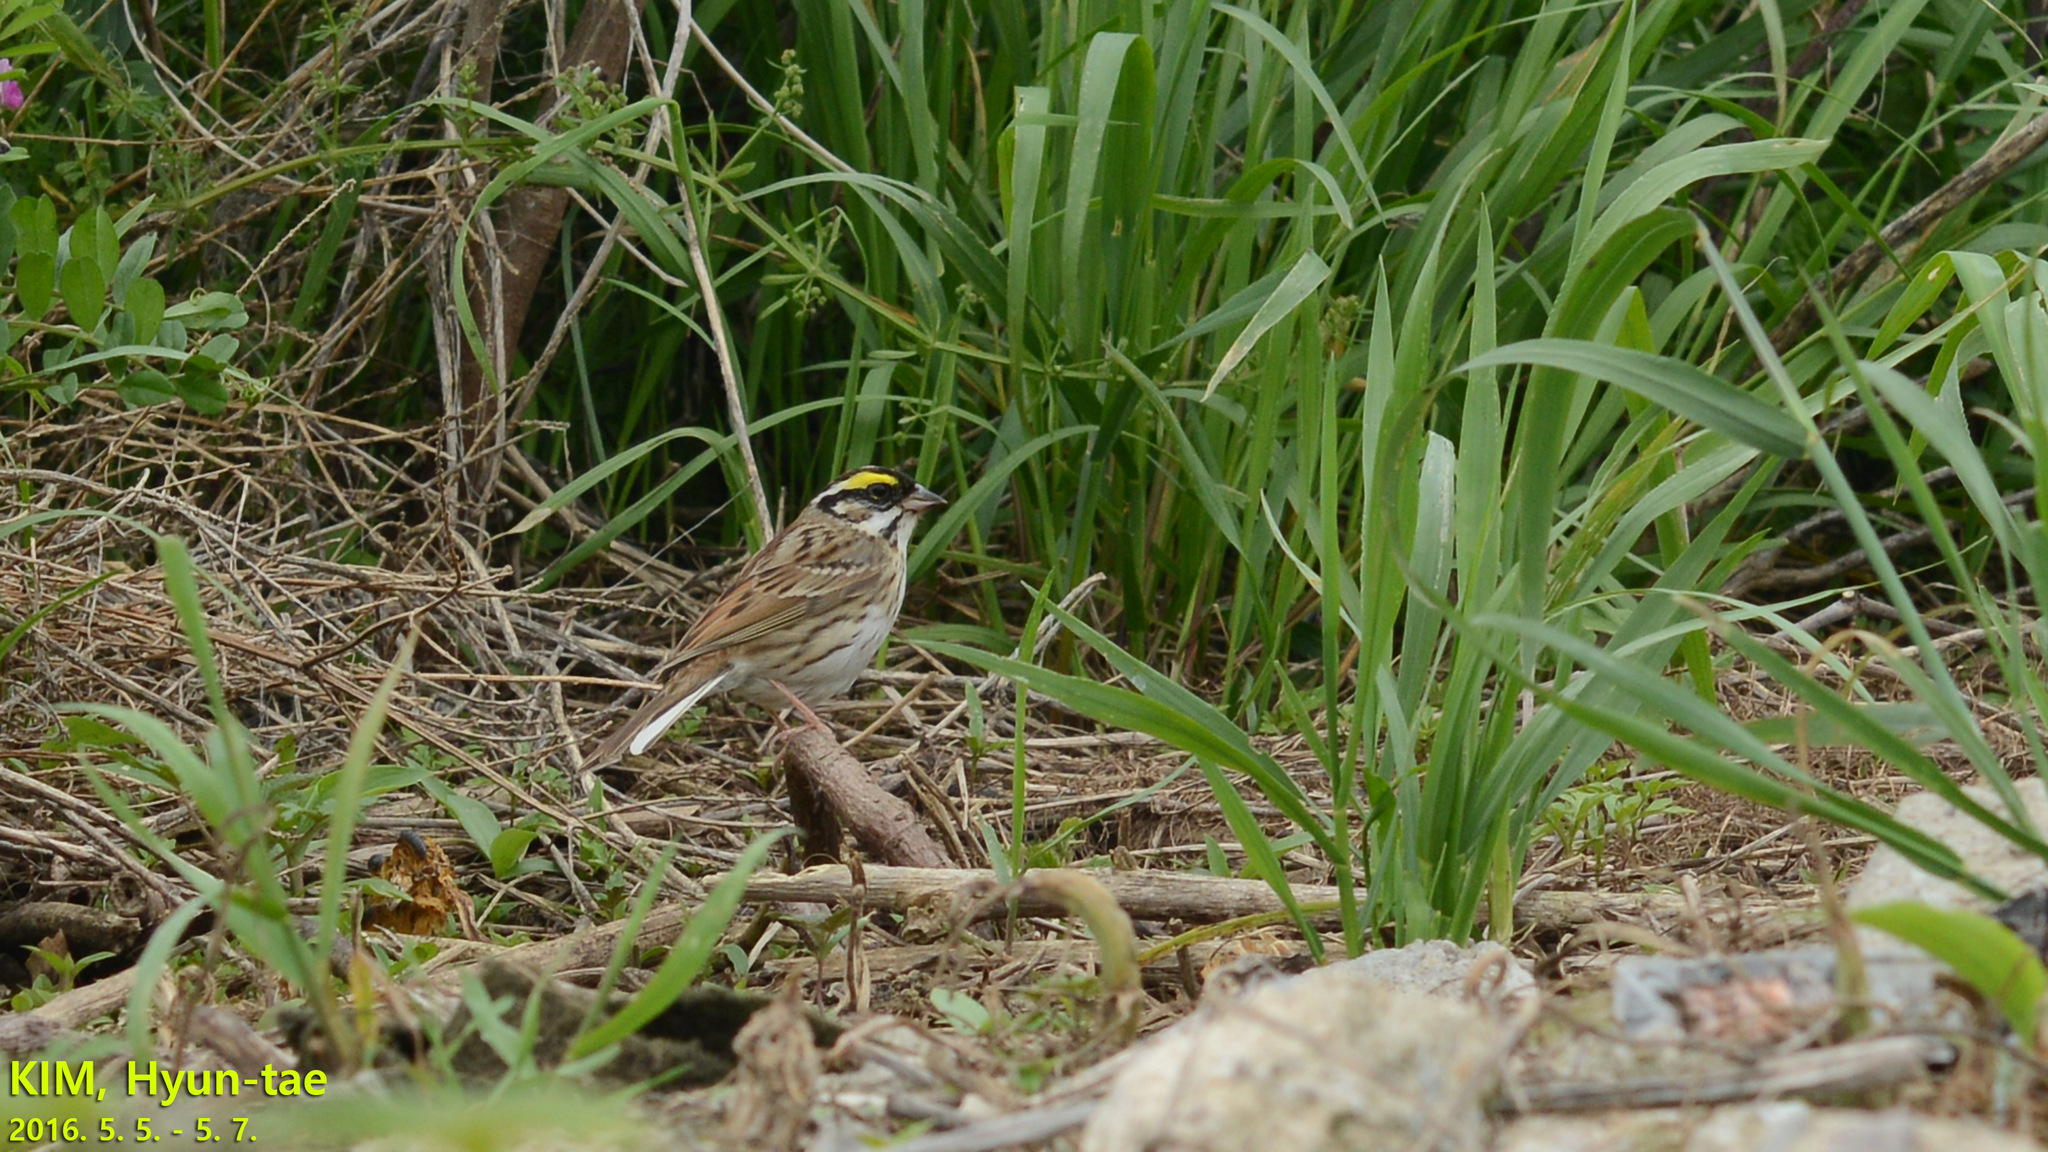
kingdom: Animalia
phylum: Chordata
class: Aves
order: Passeriformes
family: Emberizidae
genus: Emberiza
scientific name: Emberiza chrysophrys
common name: Yellow-browed bunting
